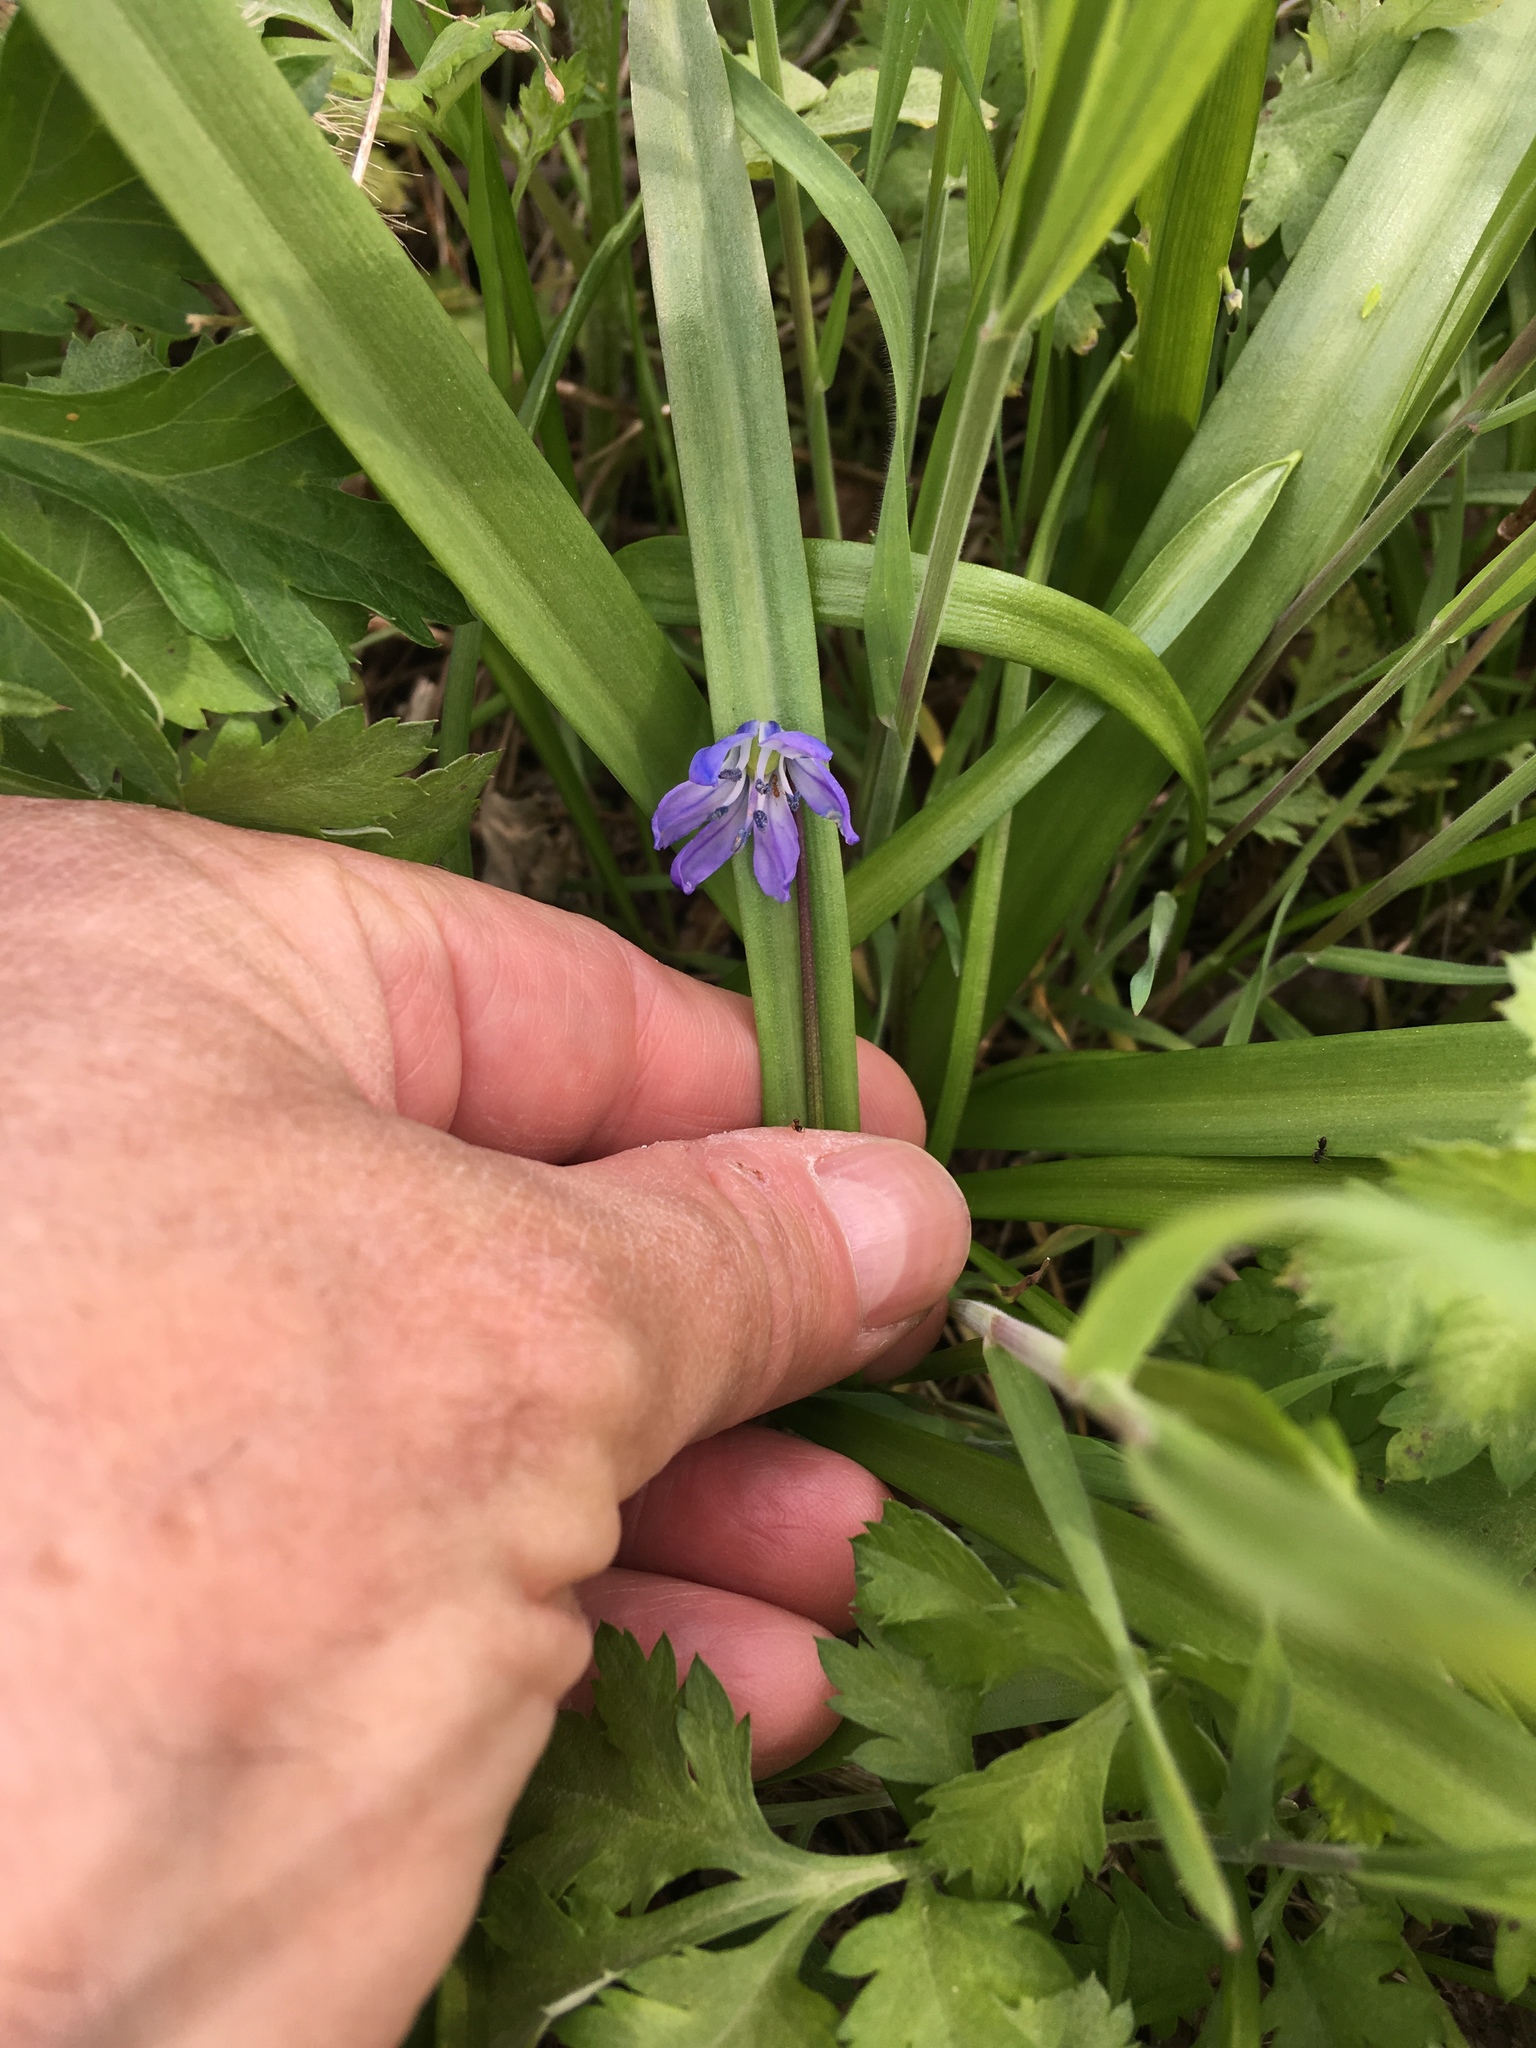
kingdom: Plantae
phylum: Tracheophyta
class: Liliopsida
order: Asparagales
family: Asparagaceae
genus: Scilla
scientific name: Scilla siberica
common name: Siberian squill
